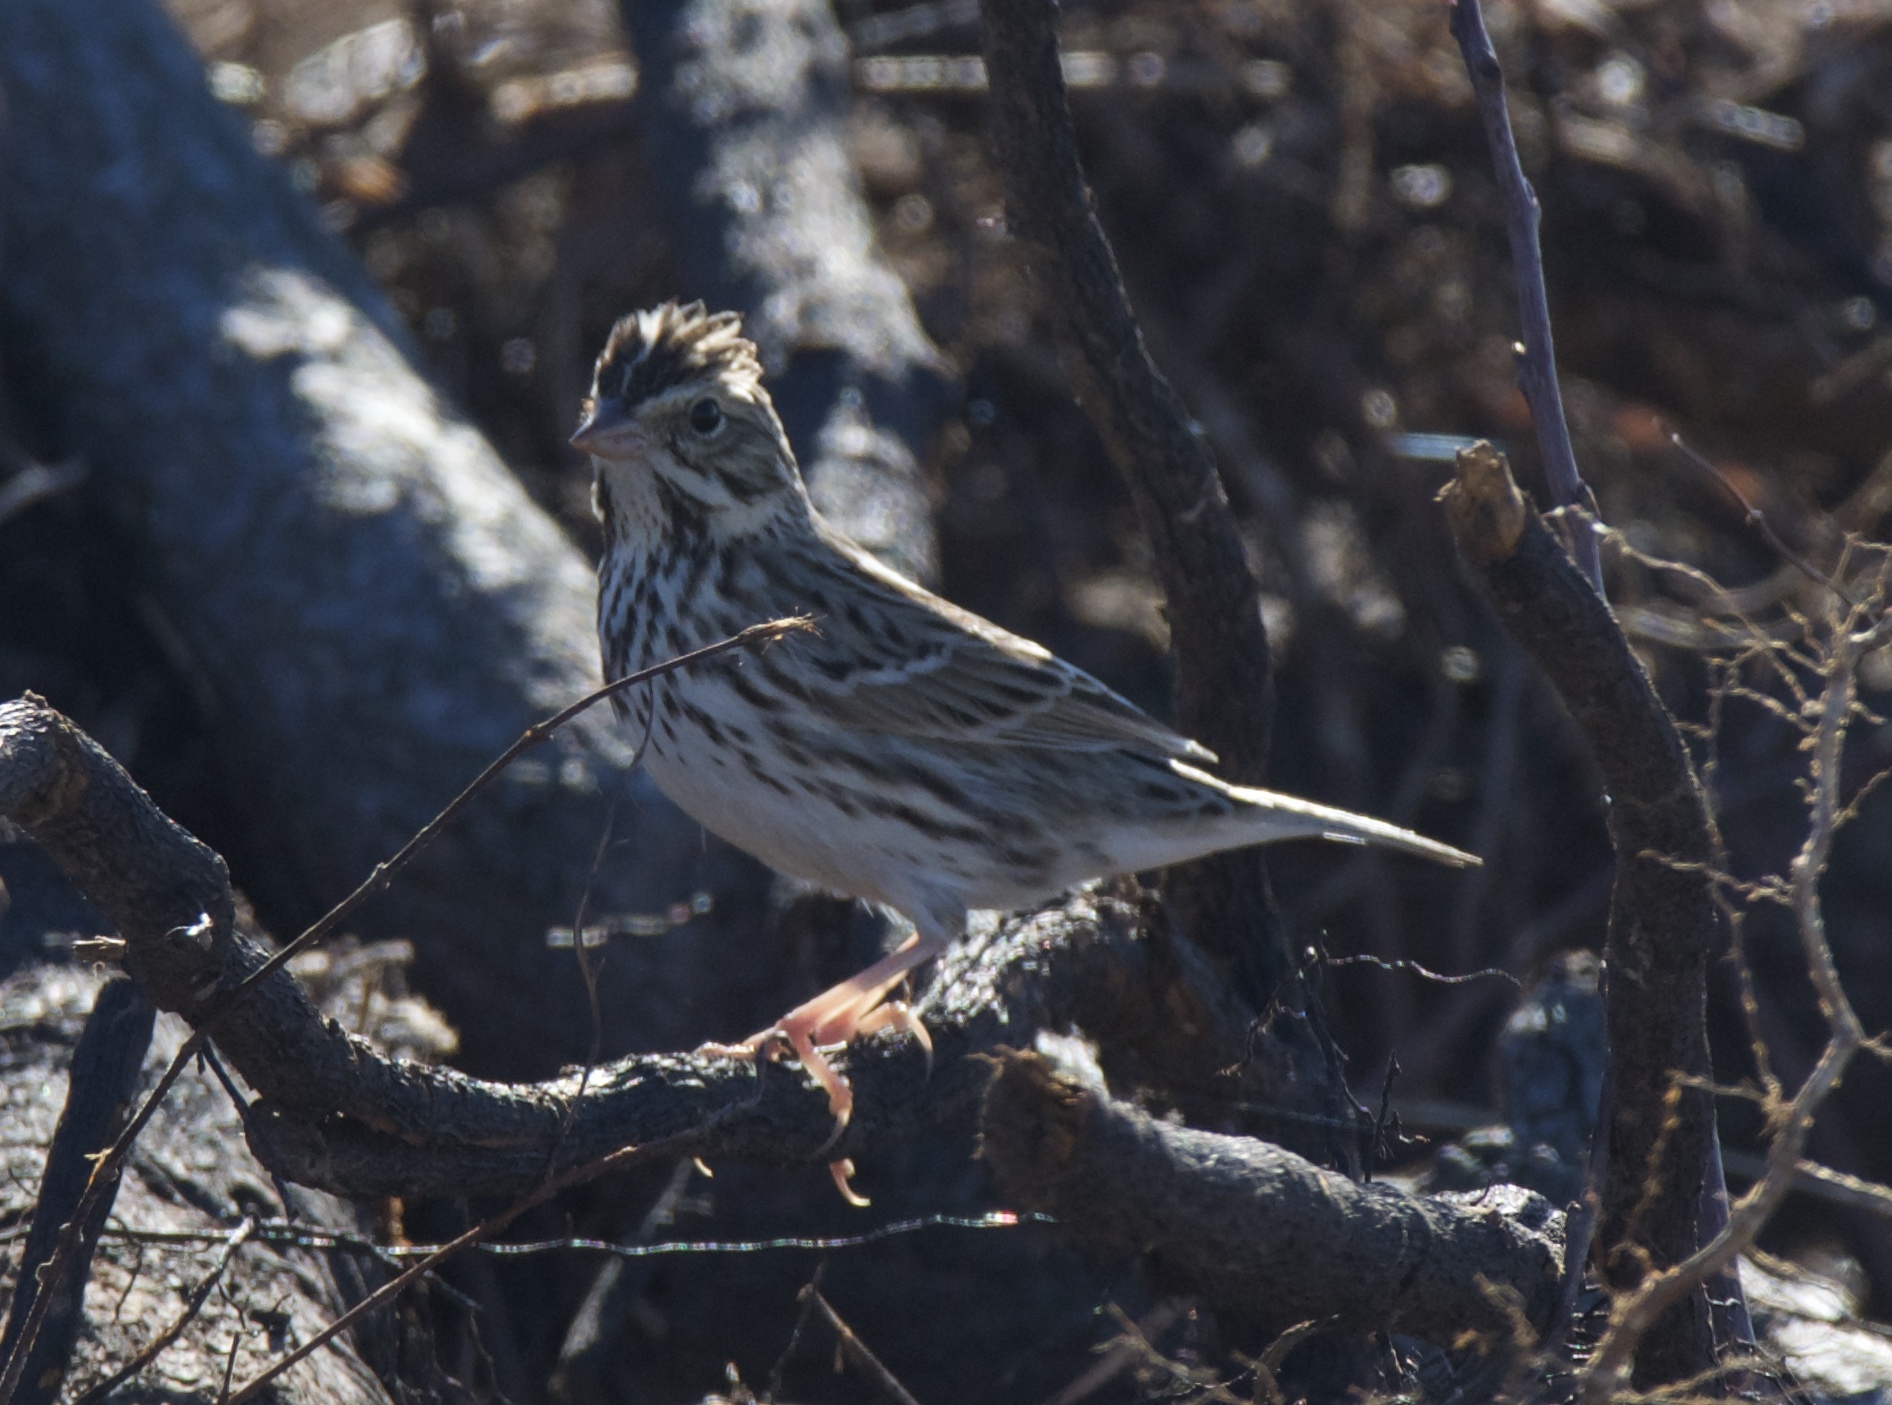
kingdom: Animalia
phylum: Chordata
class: Aves
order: Passeriformes
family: Passerellidae
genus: Passerculus
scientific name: Passerculus sandwichensis
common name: Savannah sparrow
